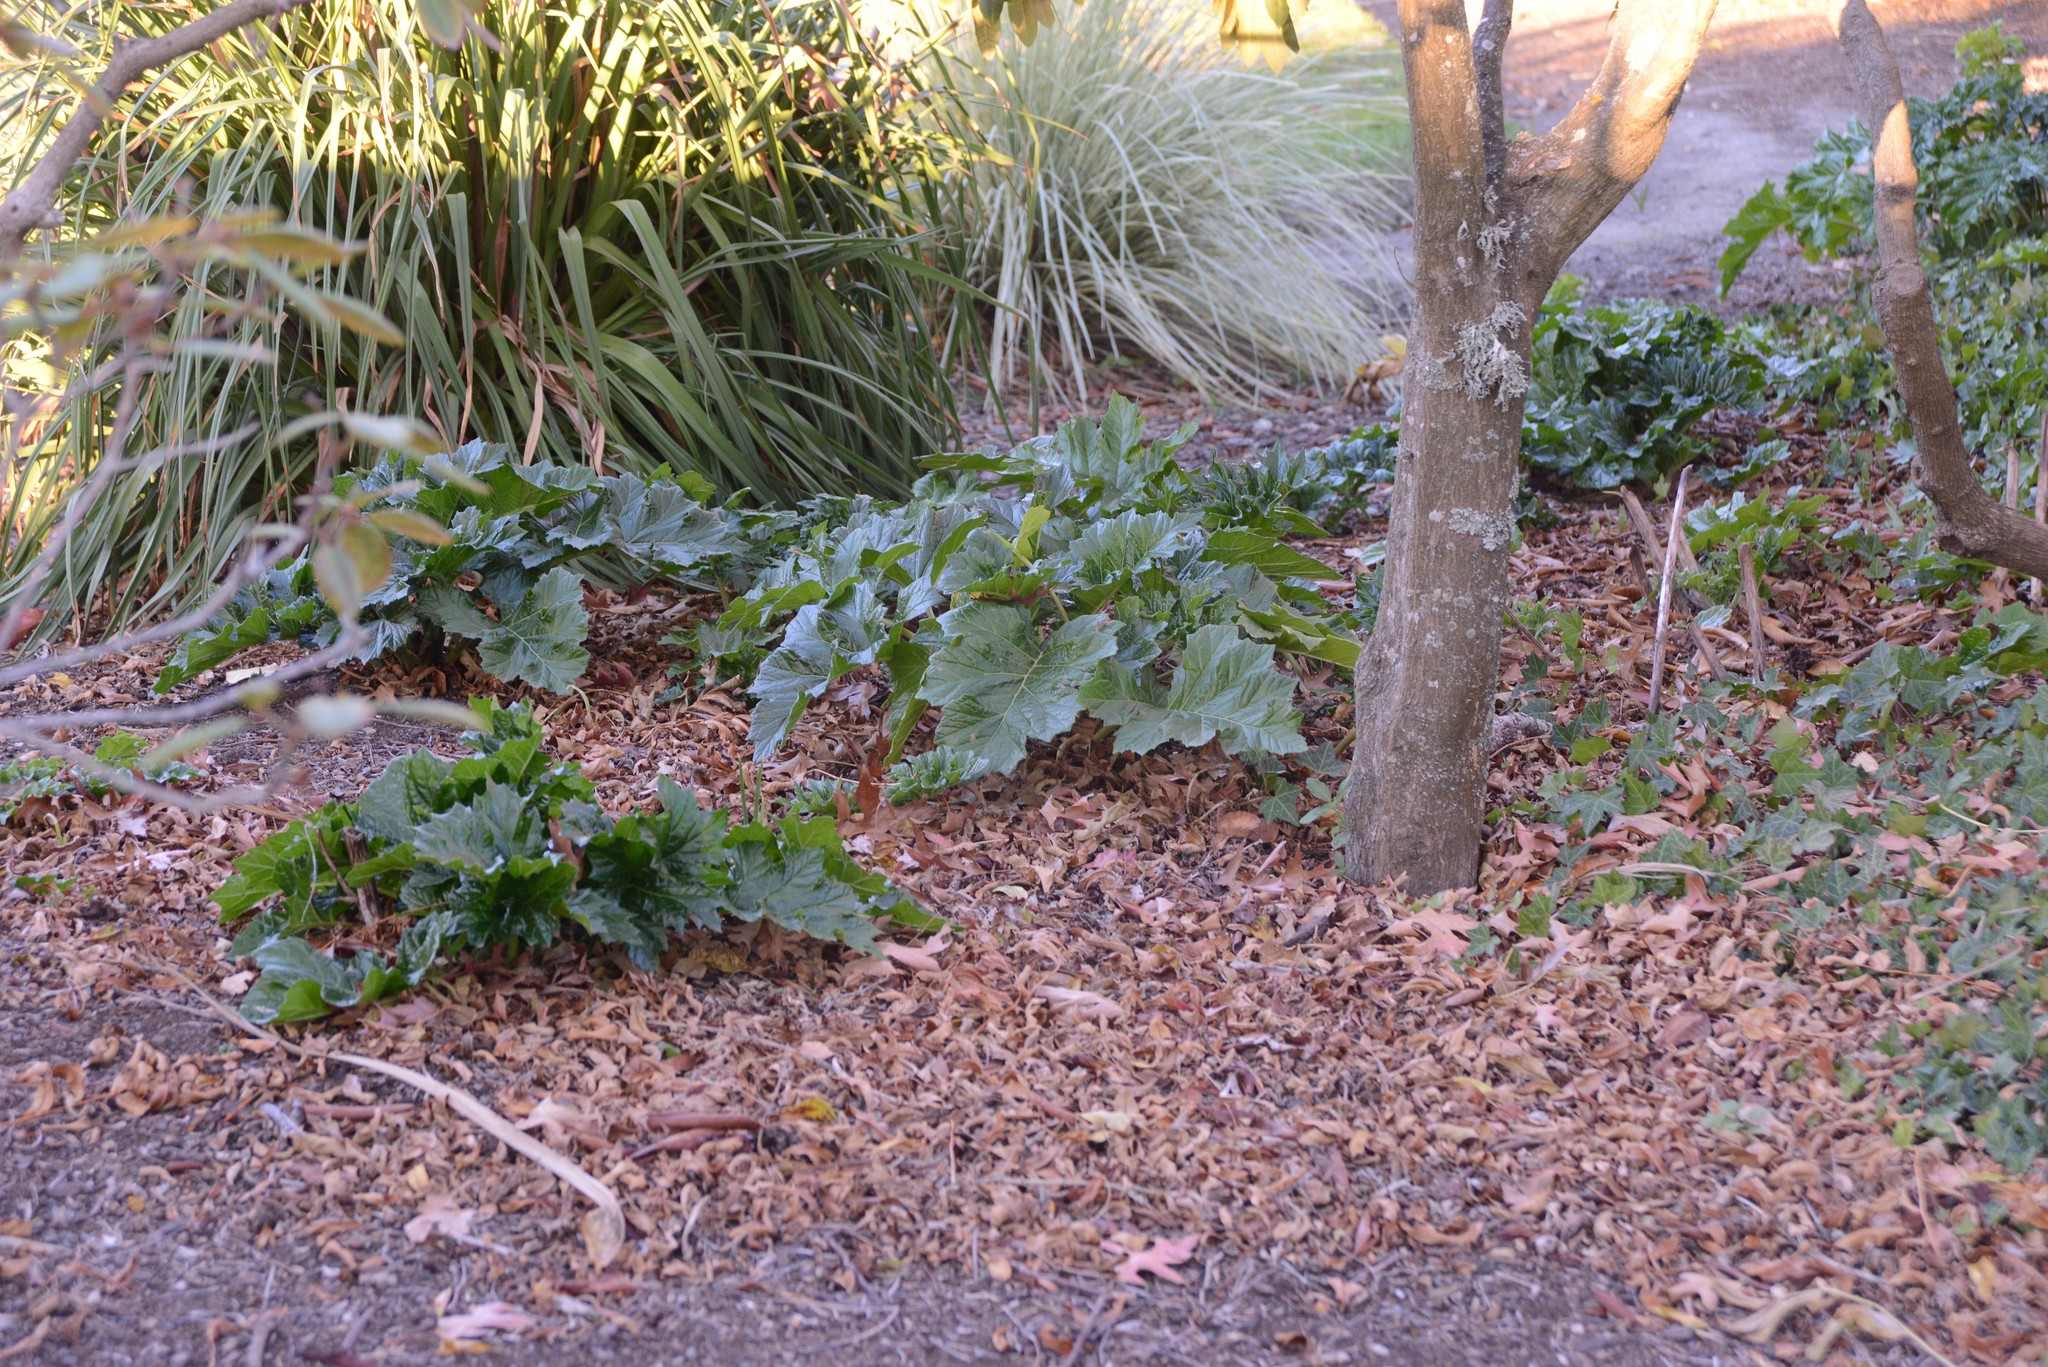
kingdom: Plantae
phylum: Tracheophyta
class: Magnoliopsida
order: Lamiales
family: Acanthaceae
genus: Acanthus
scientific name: Acanthus mollis
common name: Bear's-breech
